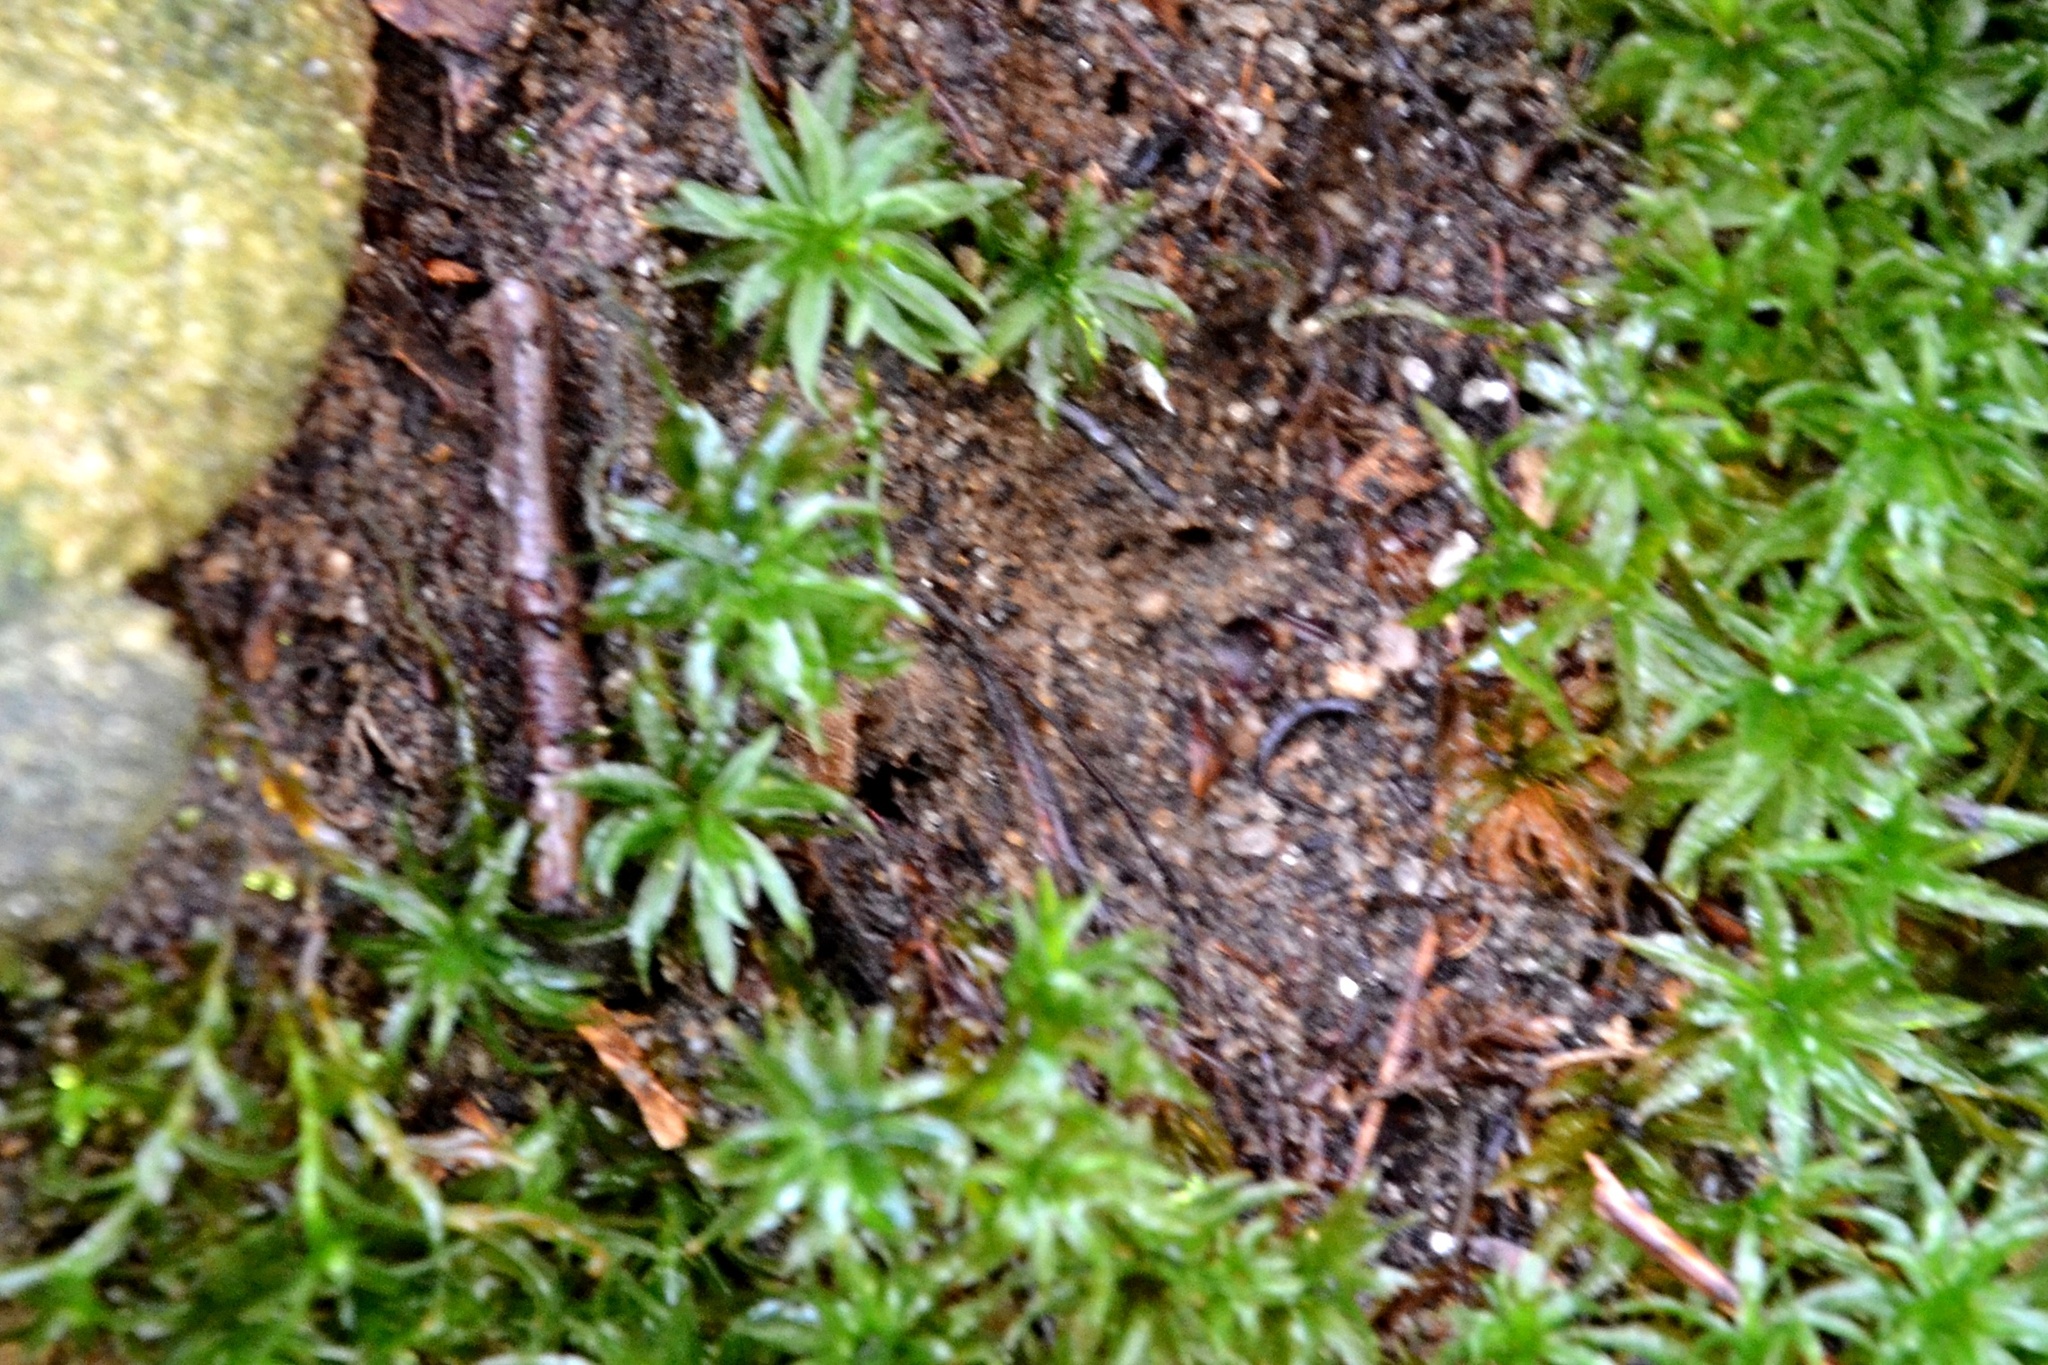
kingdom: Plantae
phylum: Bryophyta
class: Polytrichopsida
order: Polytrichales
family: Polytrichaceae
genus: Atrichum
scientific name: Atrichum undulatum
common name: Common smoothcap
